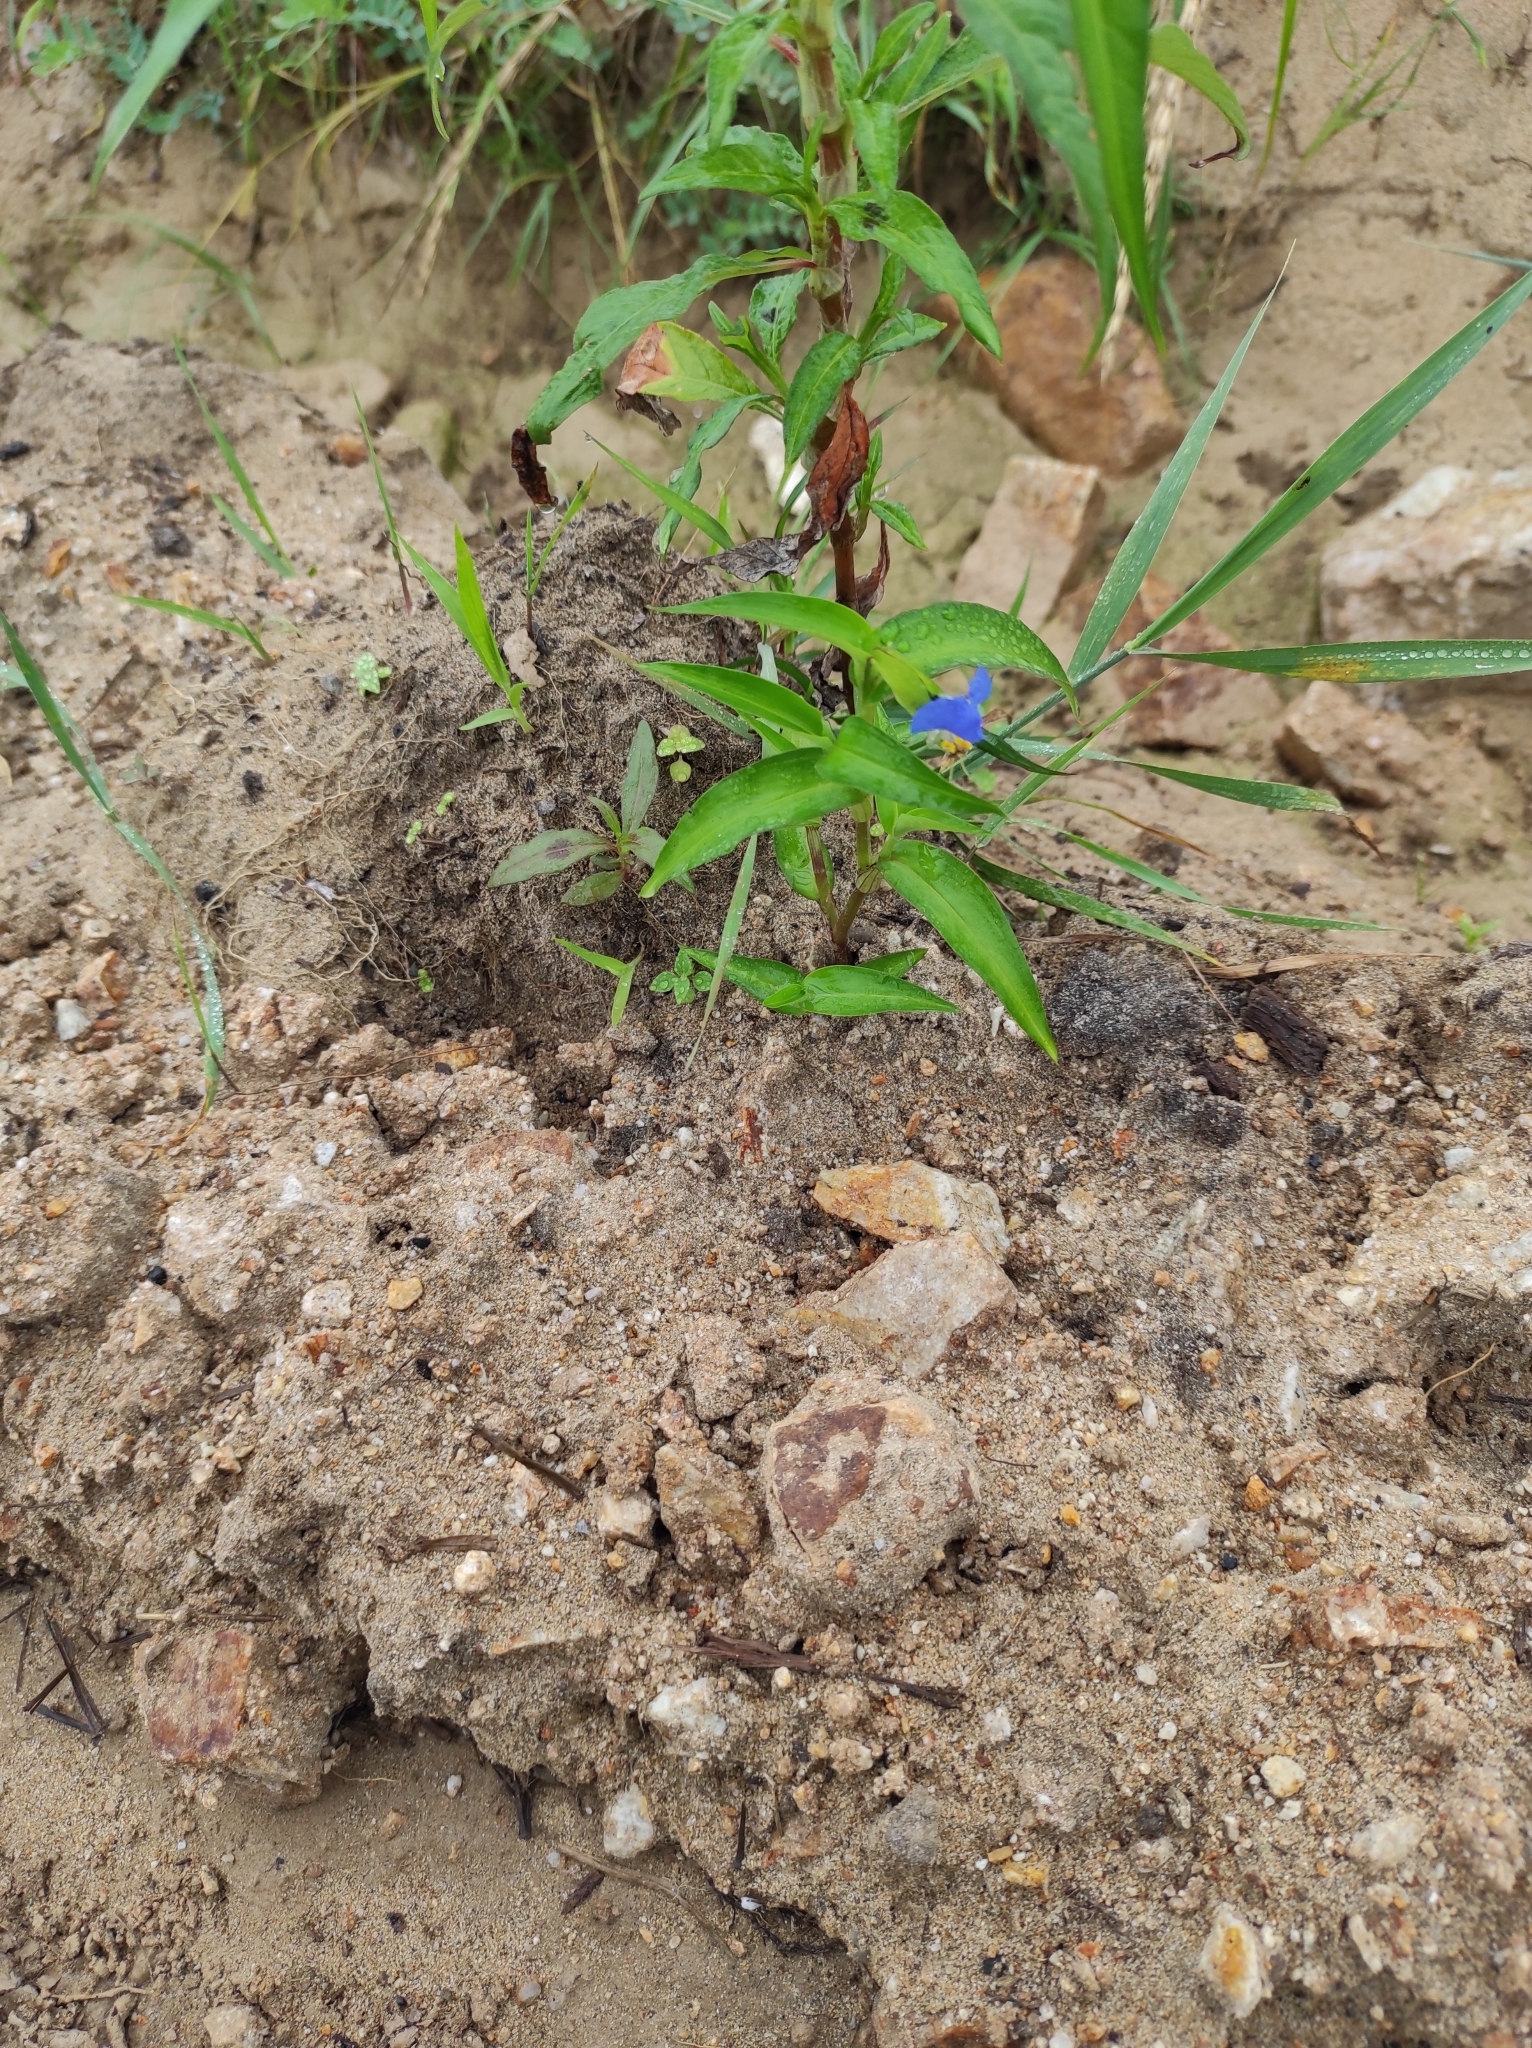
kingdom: Plantae
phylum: Tracheophyta
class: Liliopsida
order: Commelinales
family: Commelinaceae
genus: Commelina
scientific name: Commelina communis
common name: Asiatic dayflower
